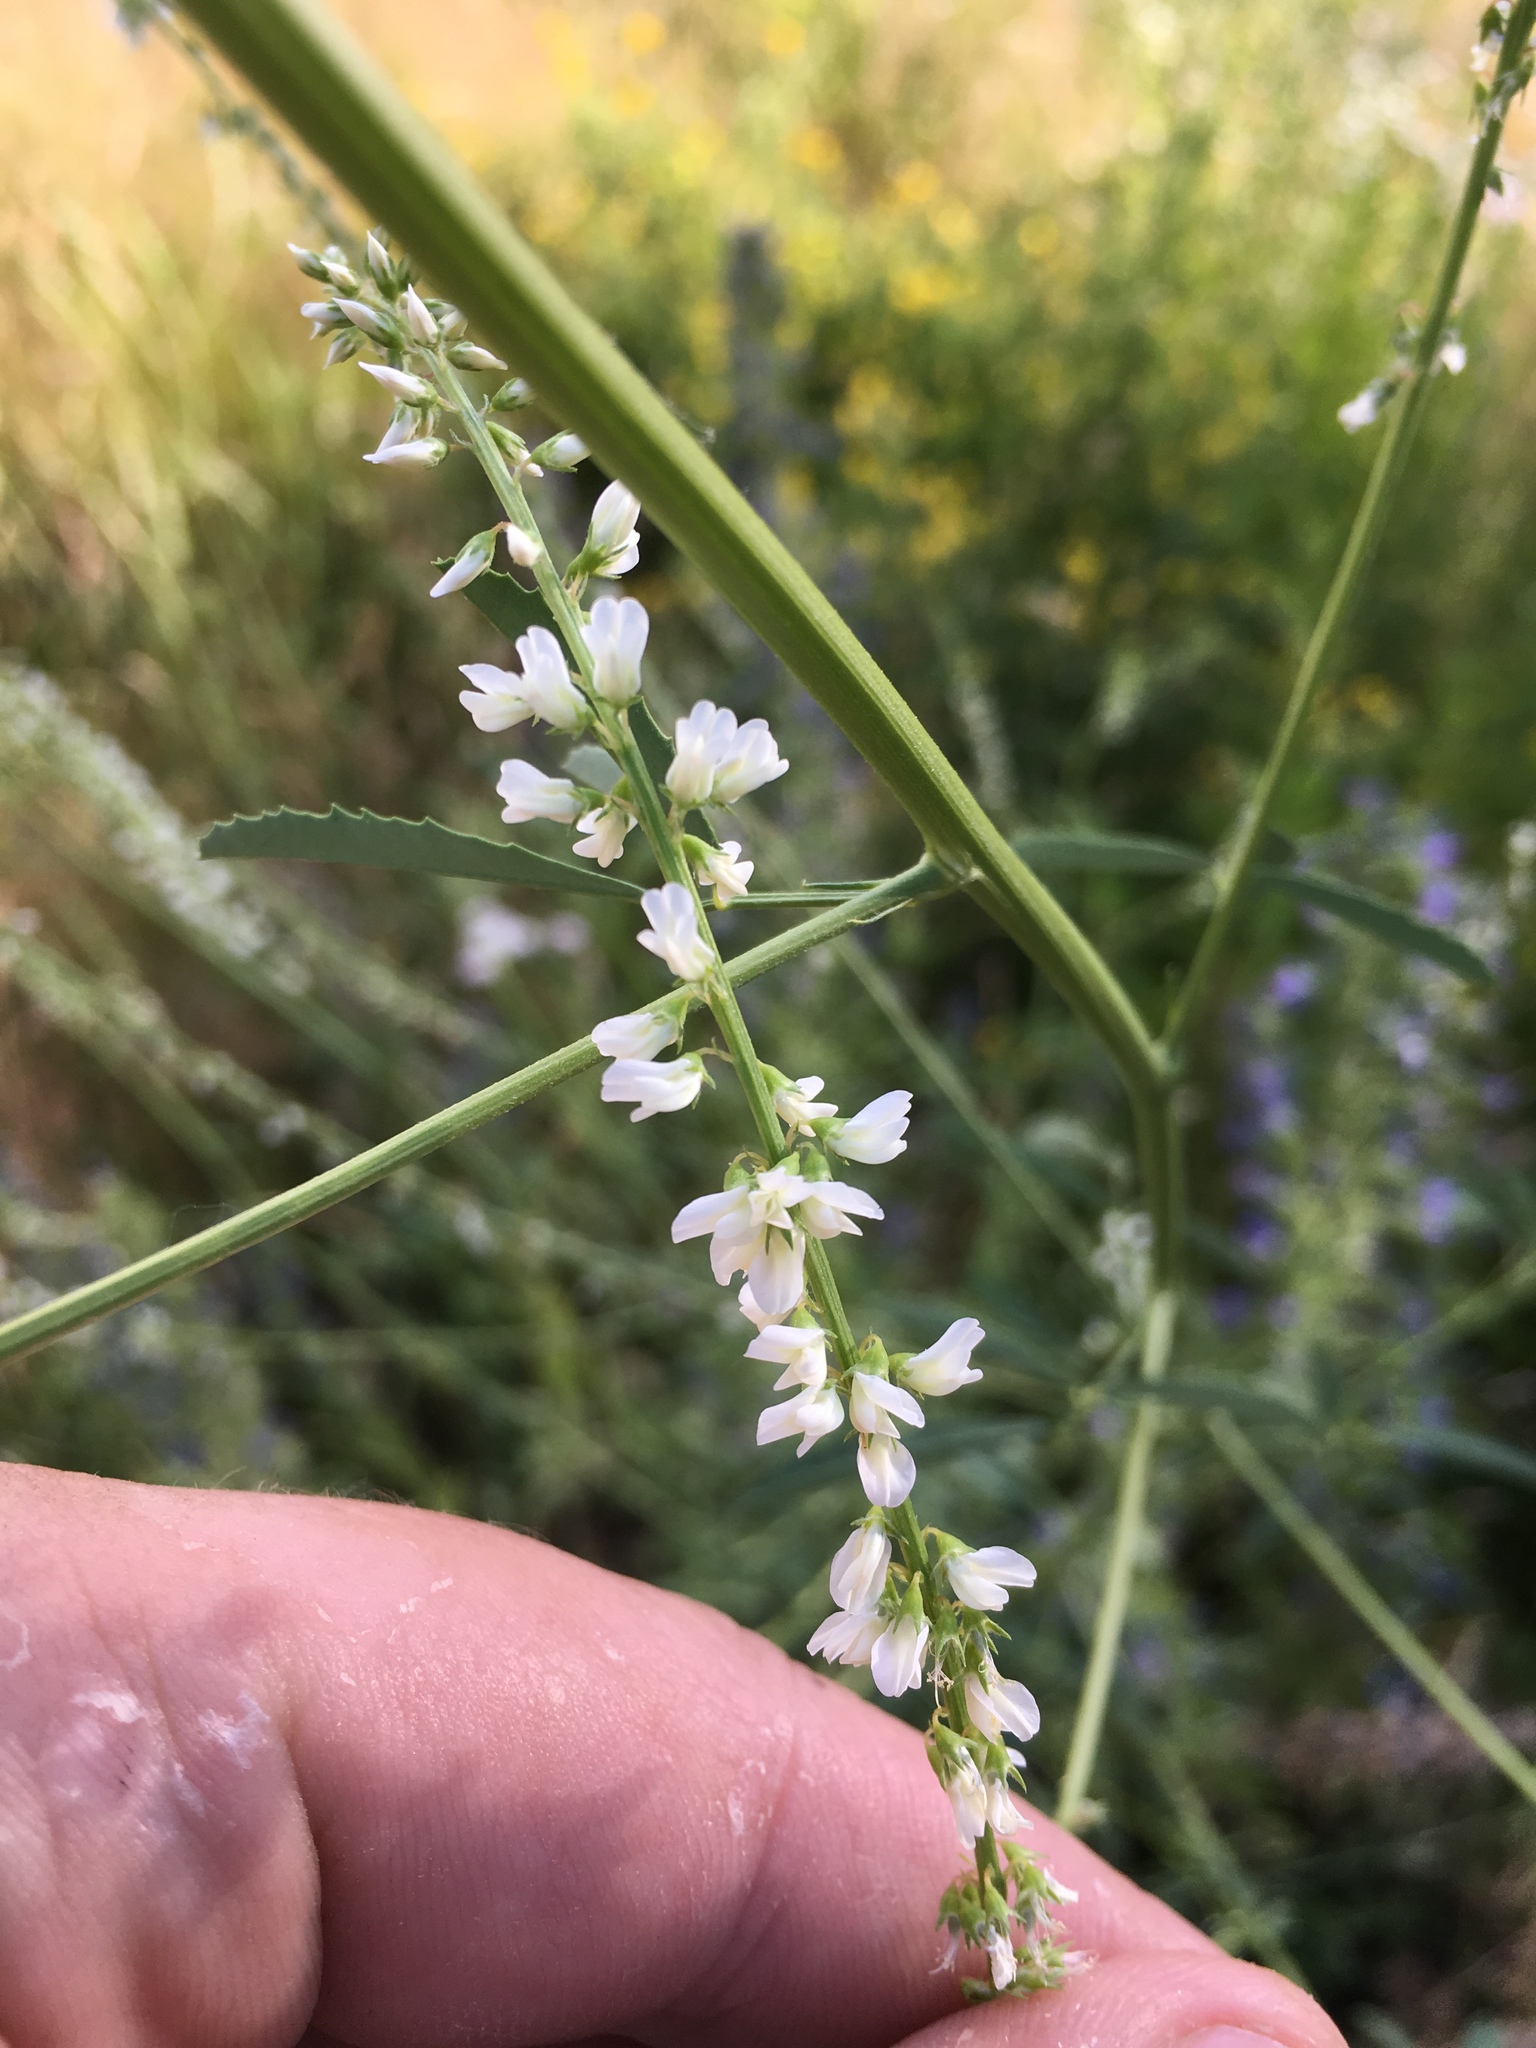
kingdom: Plantae
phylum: Tracheophyta
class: Magnoliopsida
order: Fabales
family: Fabaceae
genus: Melilotus
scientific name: Melilotus albus
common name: White melilot
